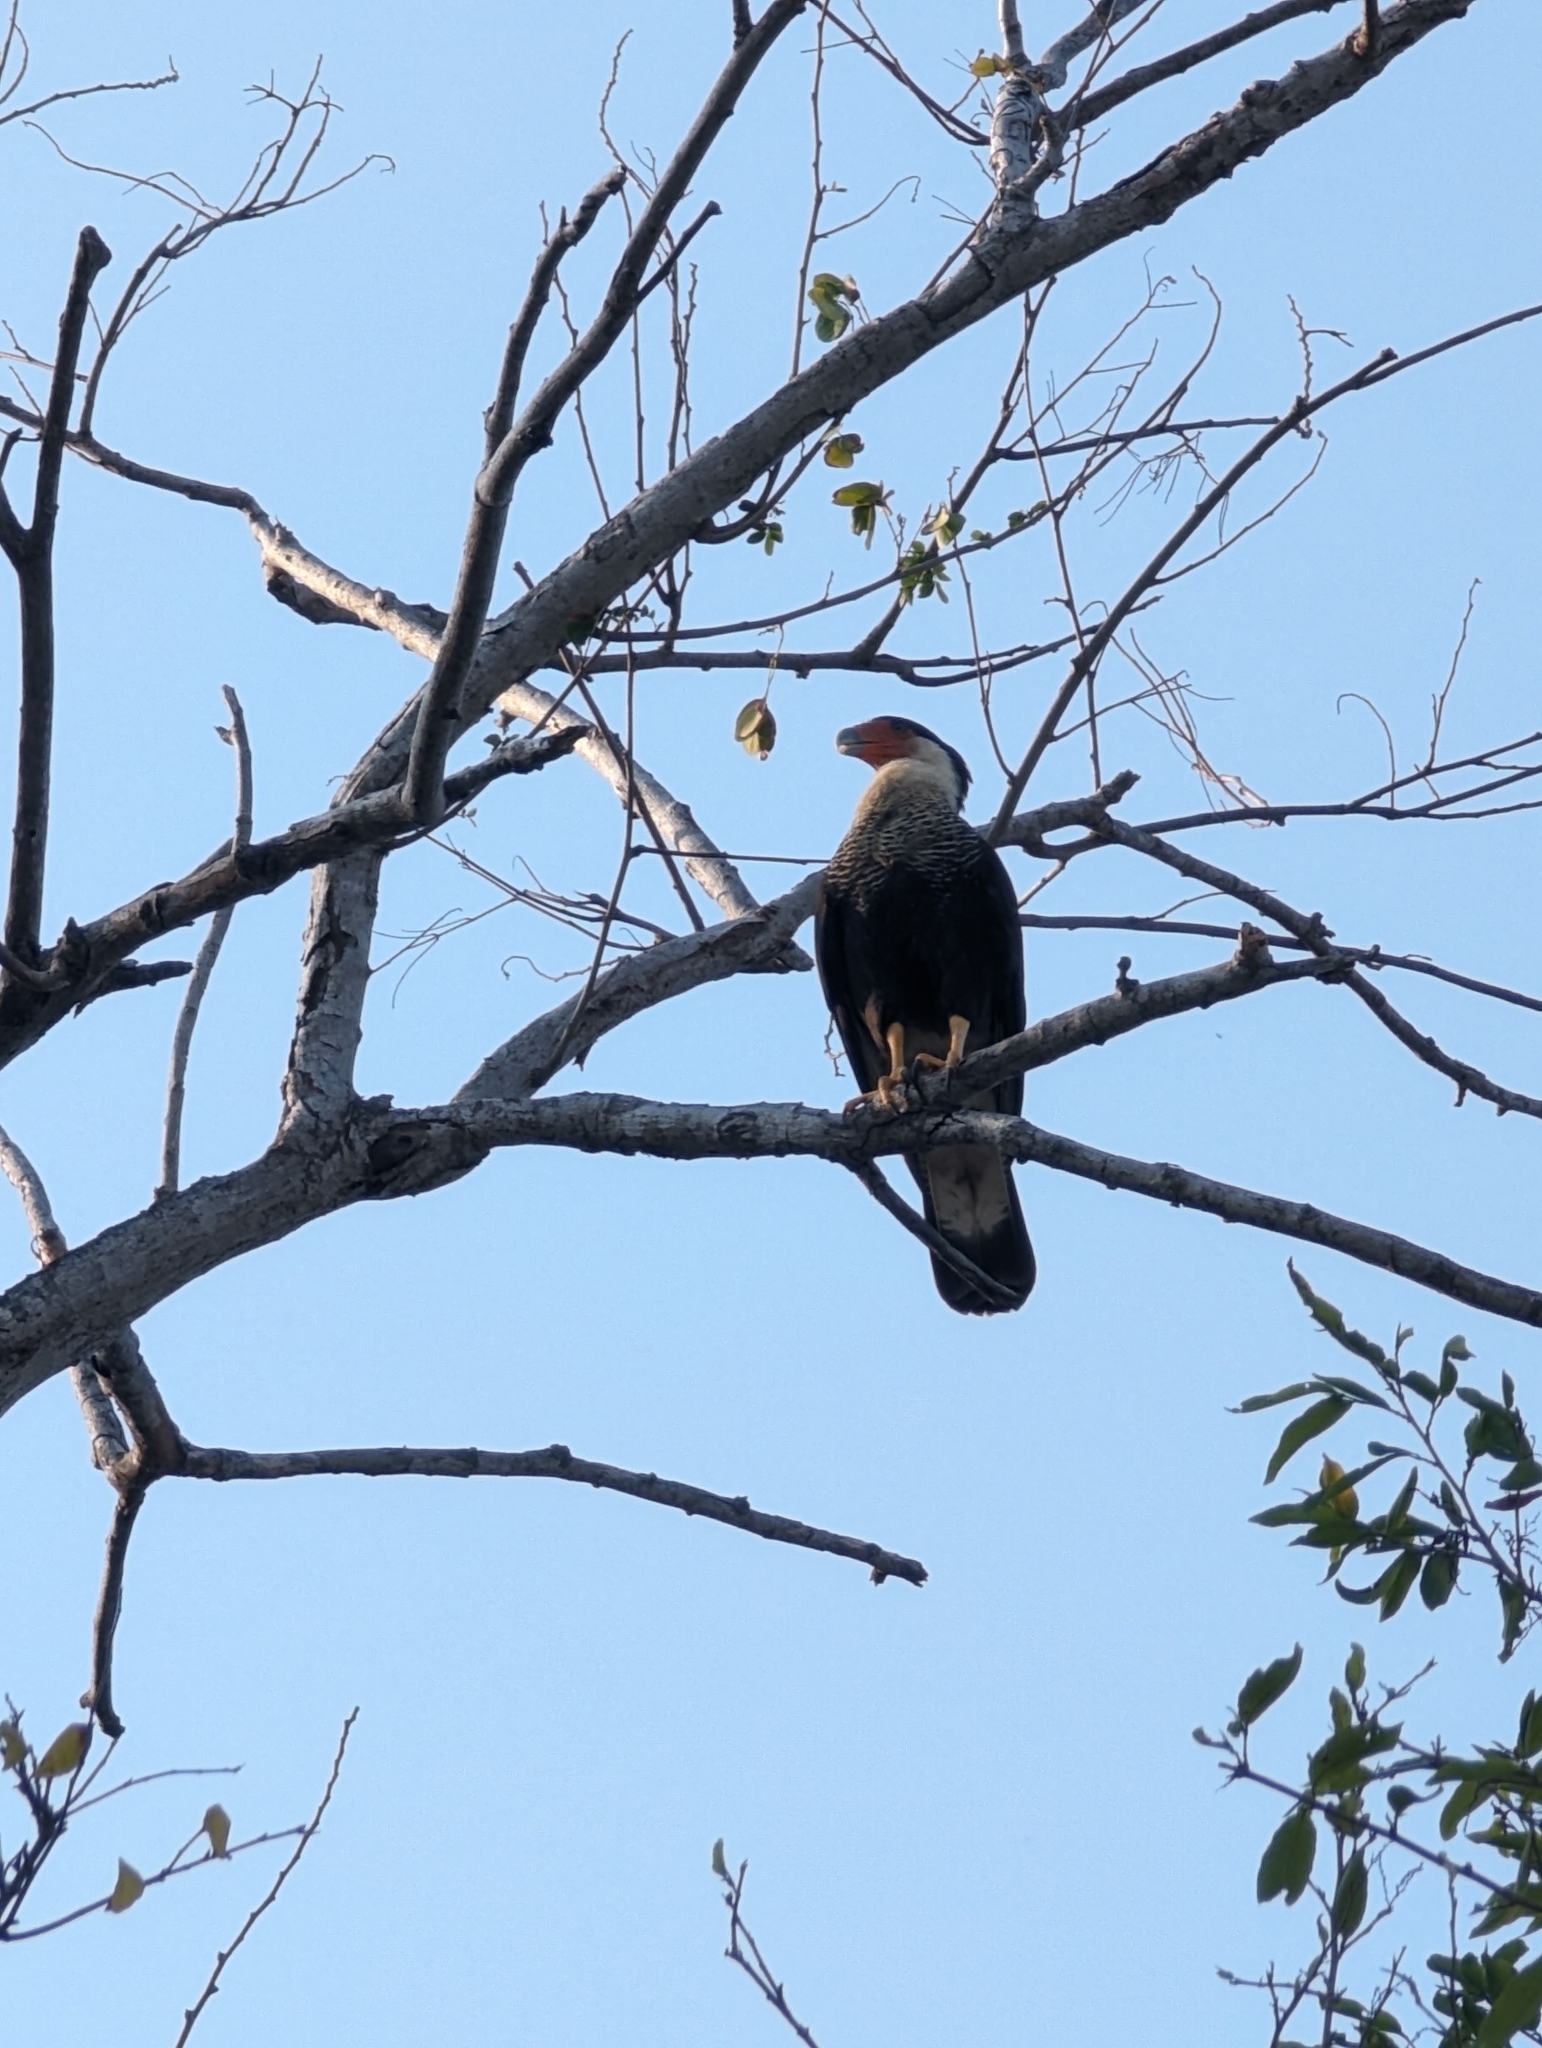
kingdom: Animalia
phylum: Chordata
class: Aves
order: Falconiformes
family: Falconidae
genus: Caracara
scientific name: Caracara plancus
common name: Southern caracara
